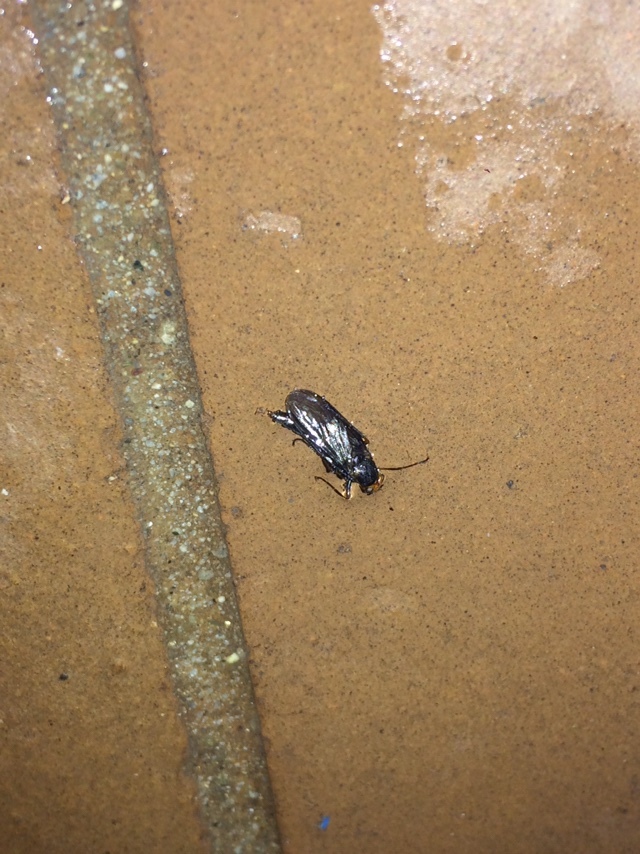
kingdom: Animalia
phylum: Arthropoda
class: Insecta
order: Diptera
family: Stratiomyidae
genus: Inopus
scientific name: Inopus rubriceps
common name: Soldier fly
